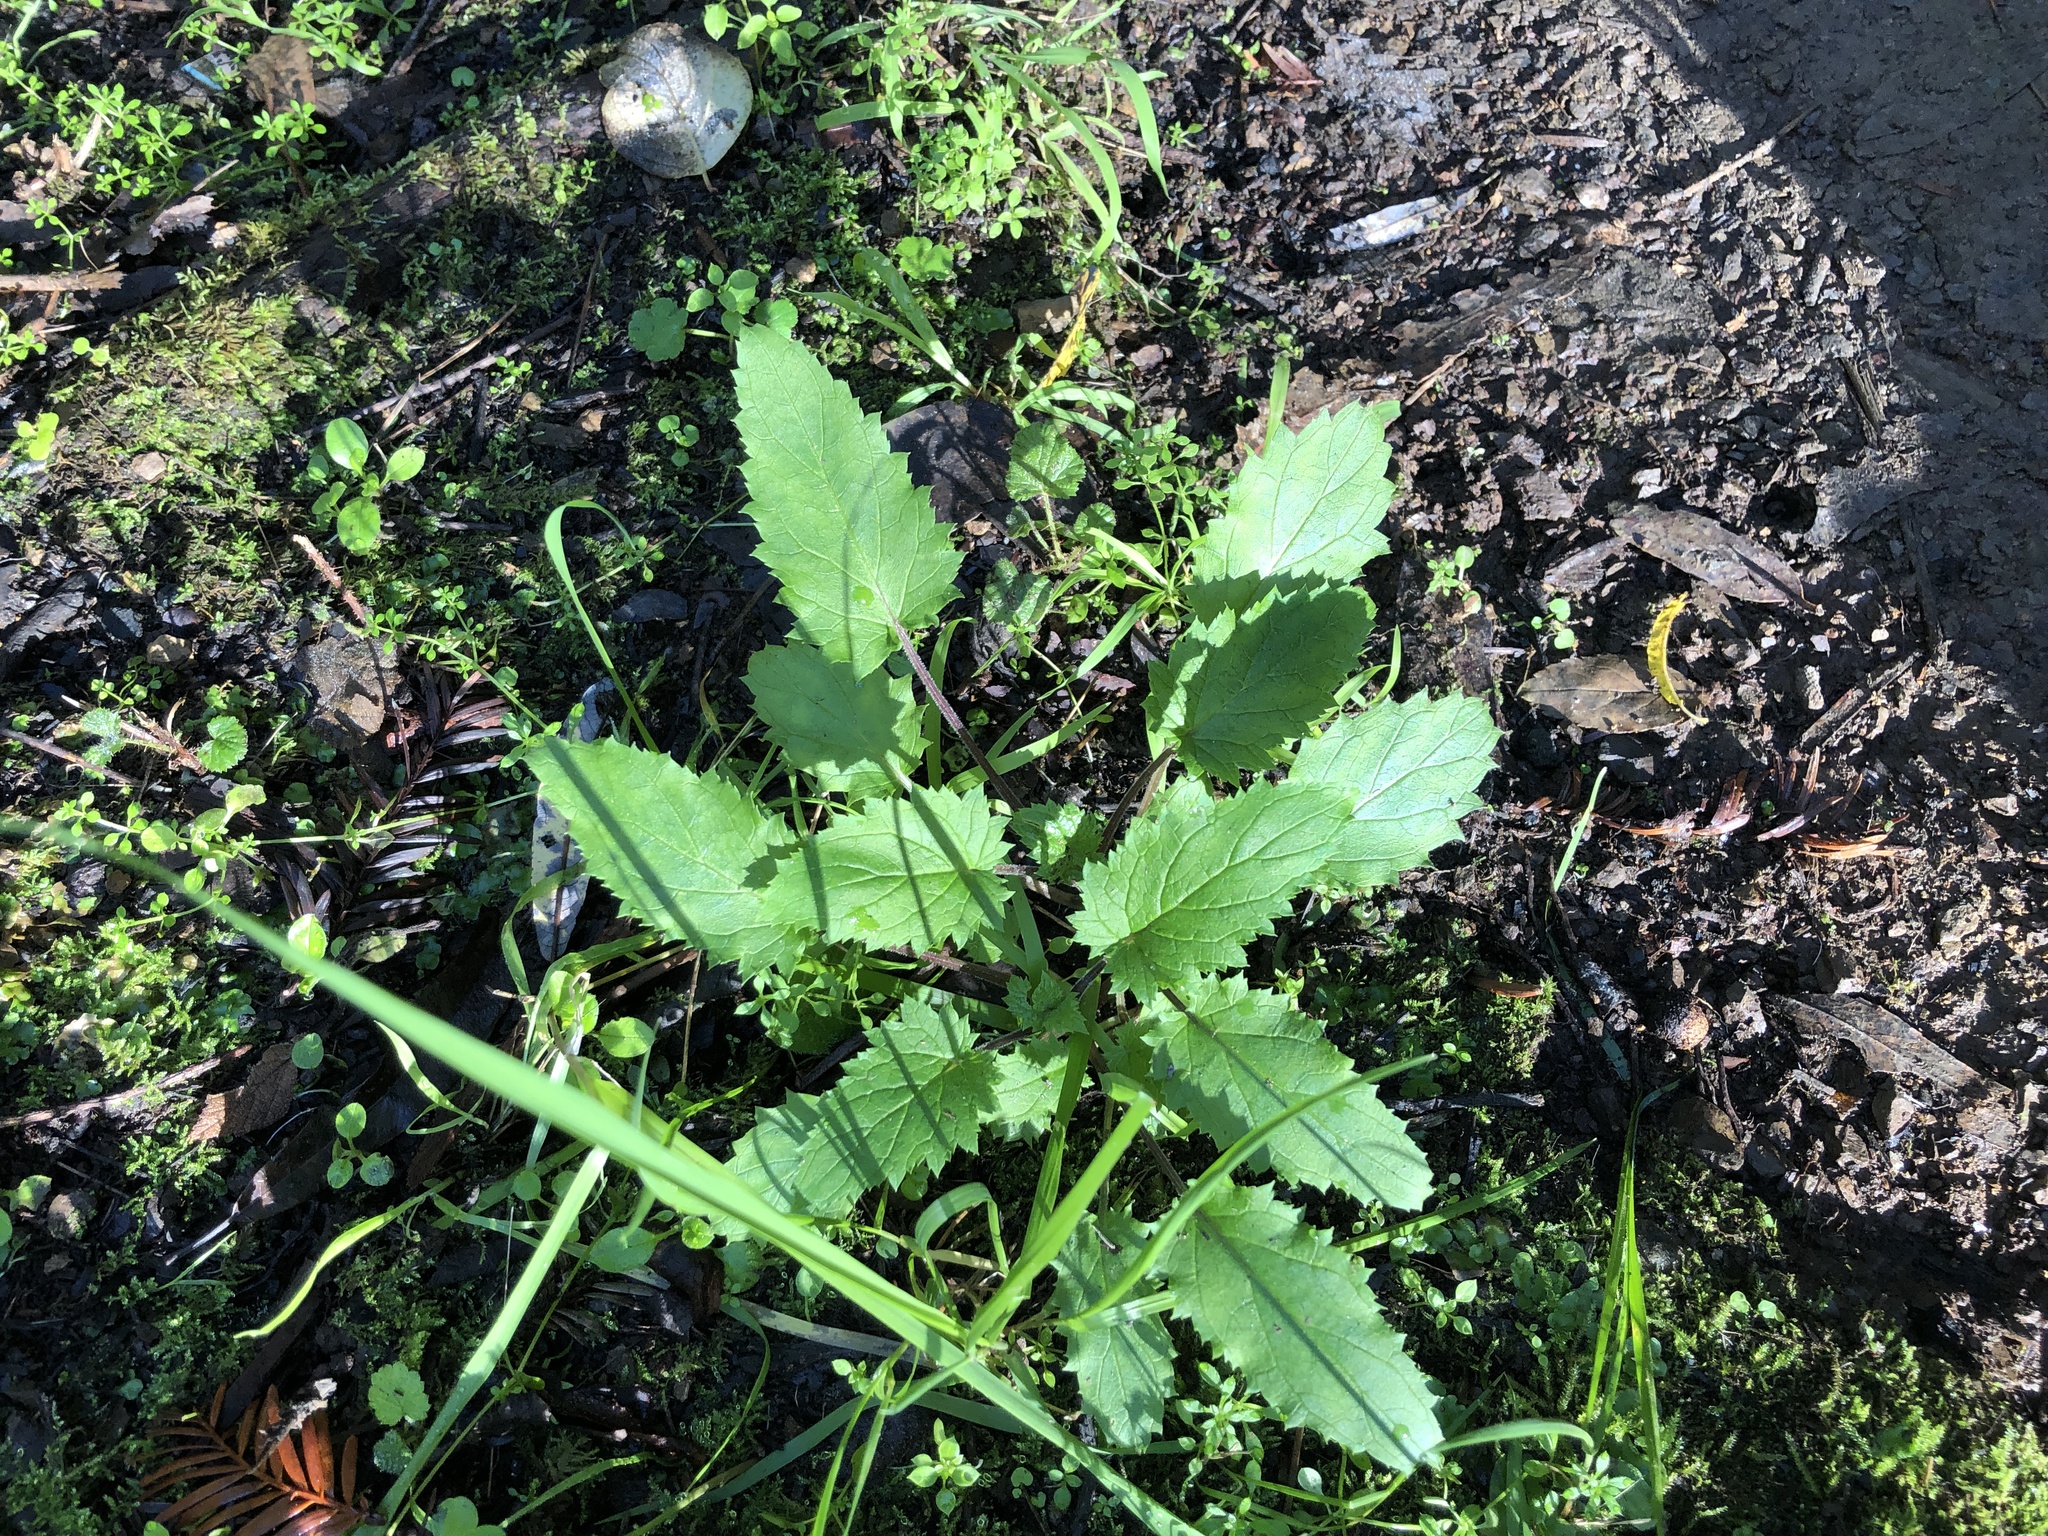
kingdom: Plantae
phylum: Tracheophyta
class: Magnoliopsida
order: Lamiales
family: Scrophulariaceae
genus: Scrophularia
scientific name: Scrophularia californica
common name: California figwort
